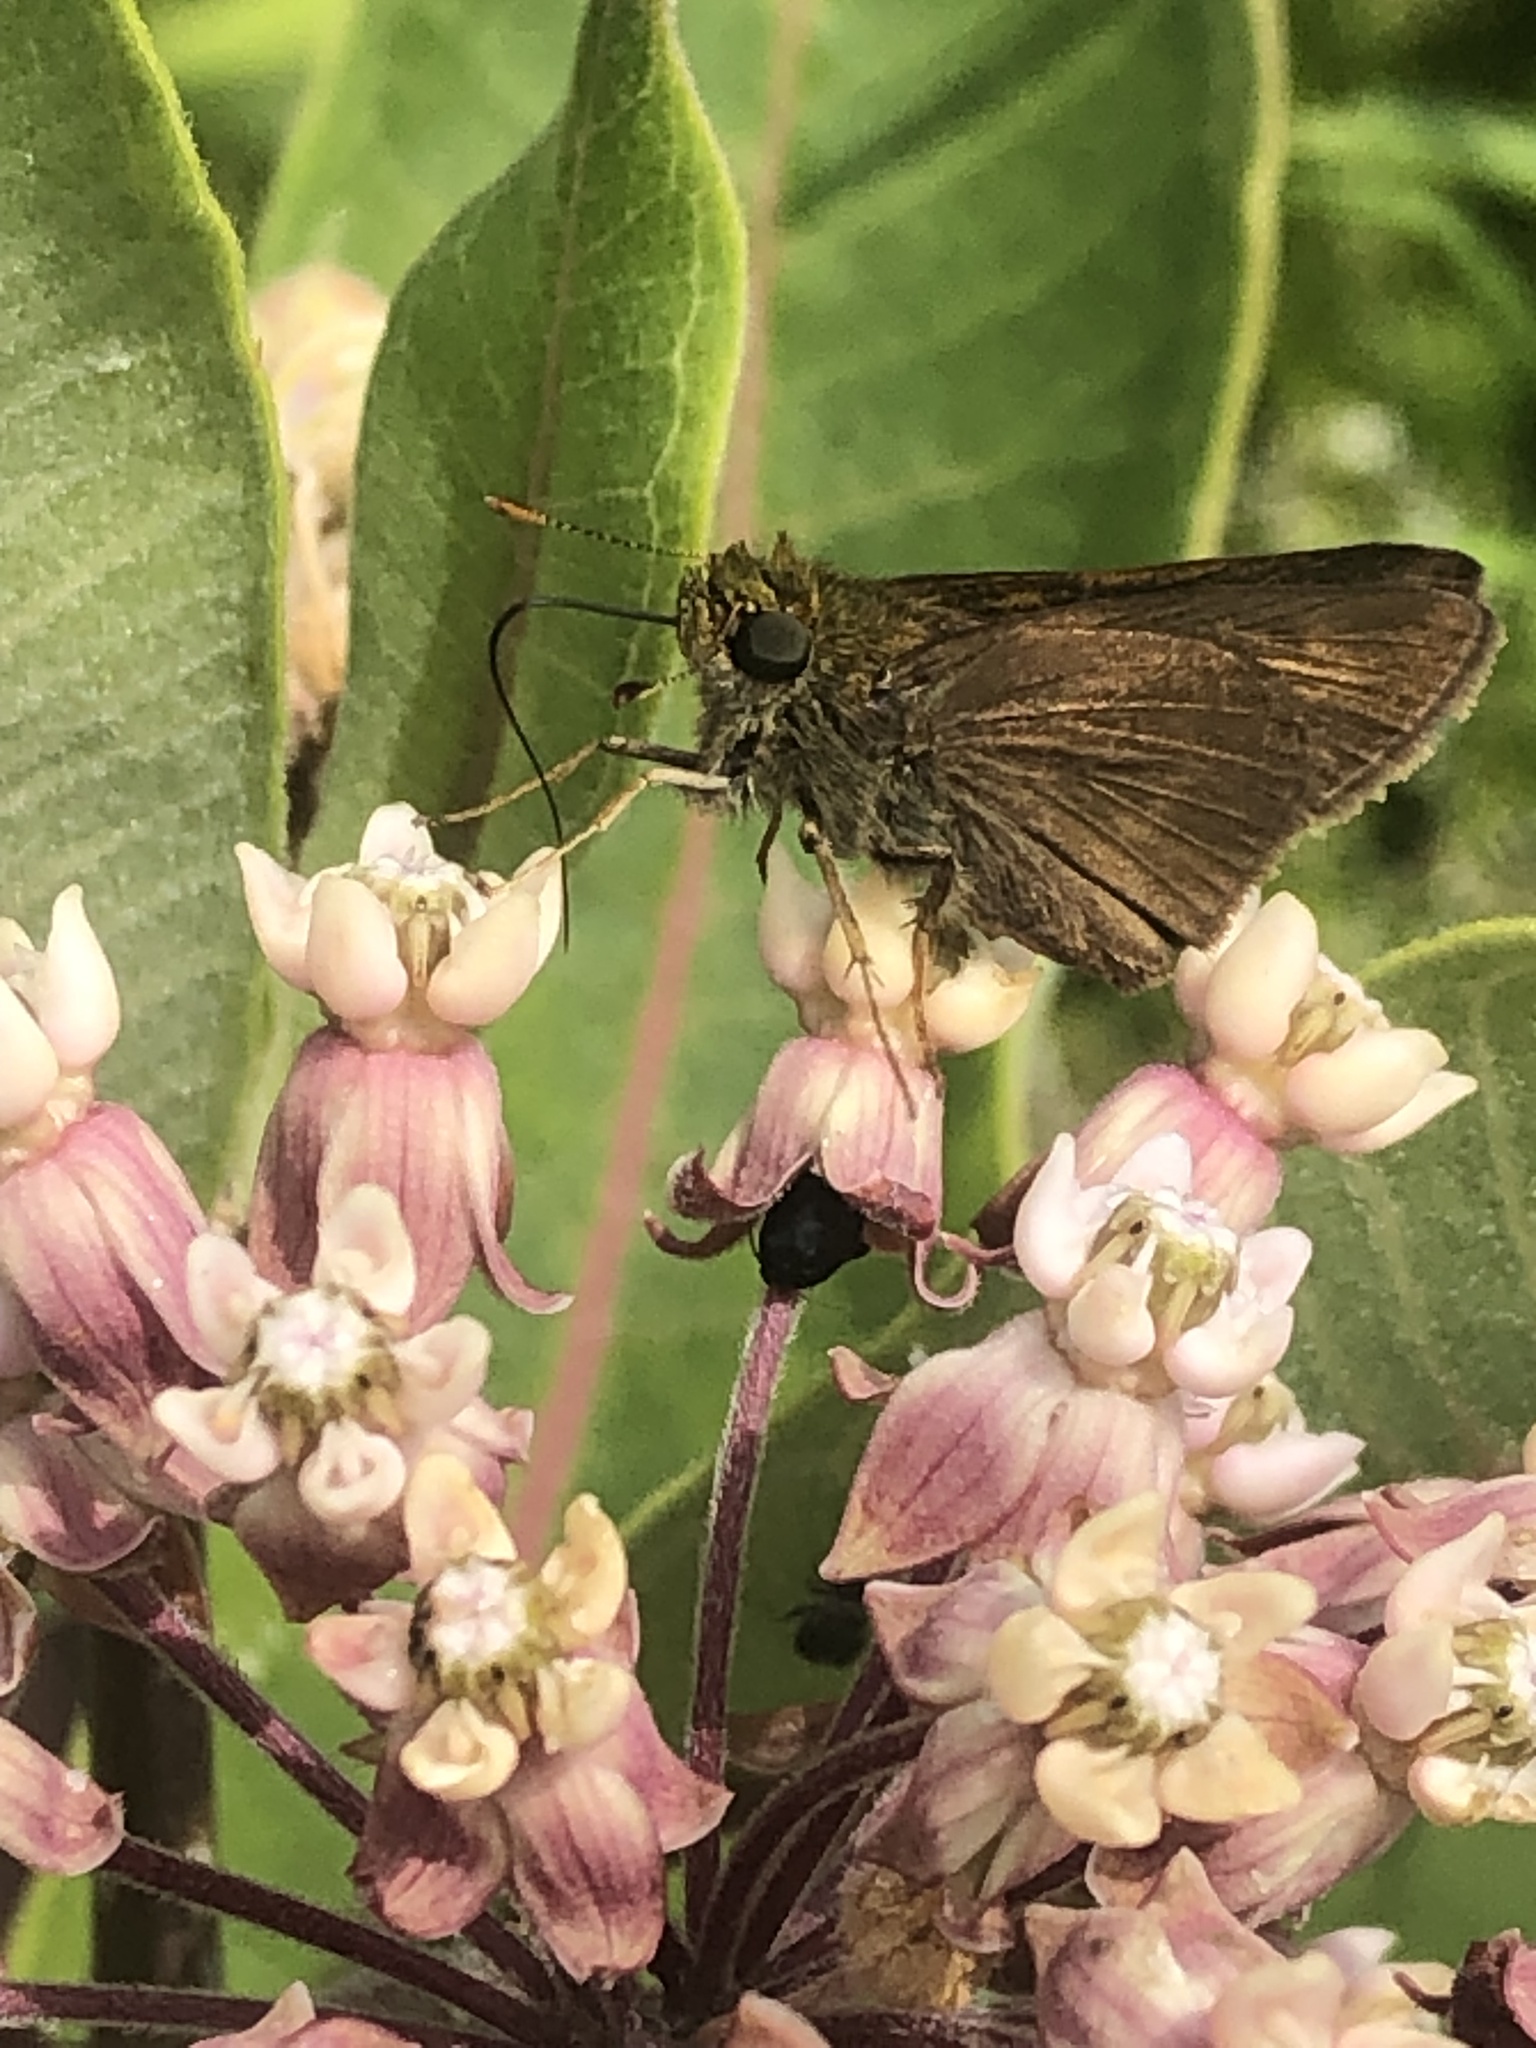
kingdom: Animalia
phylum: Arthropoda
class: Insecta
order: Lepidoptera
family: Hesperiidae
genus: Euphyes
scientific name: Euphyes vestris
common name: Dun skipper
